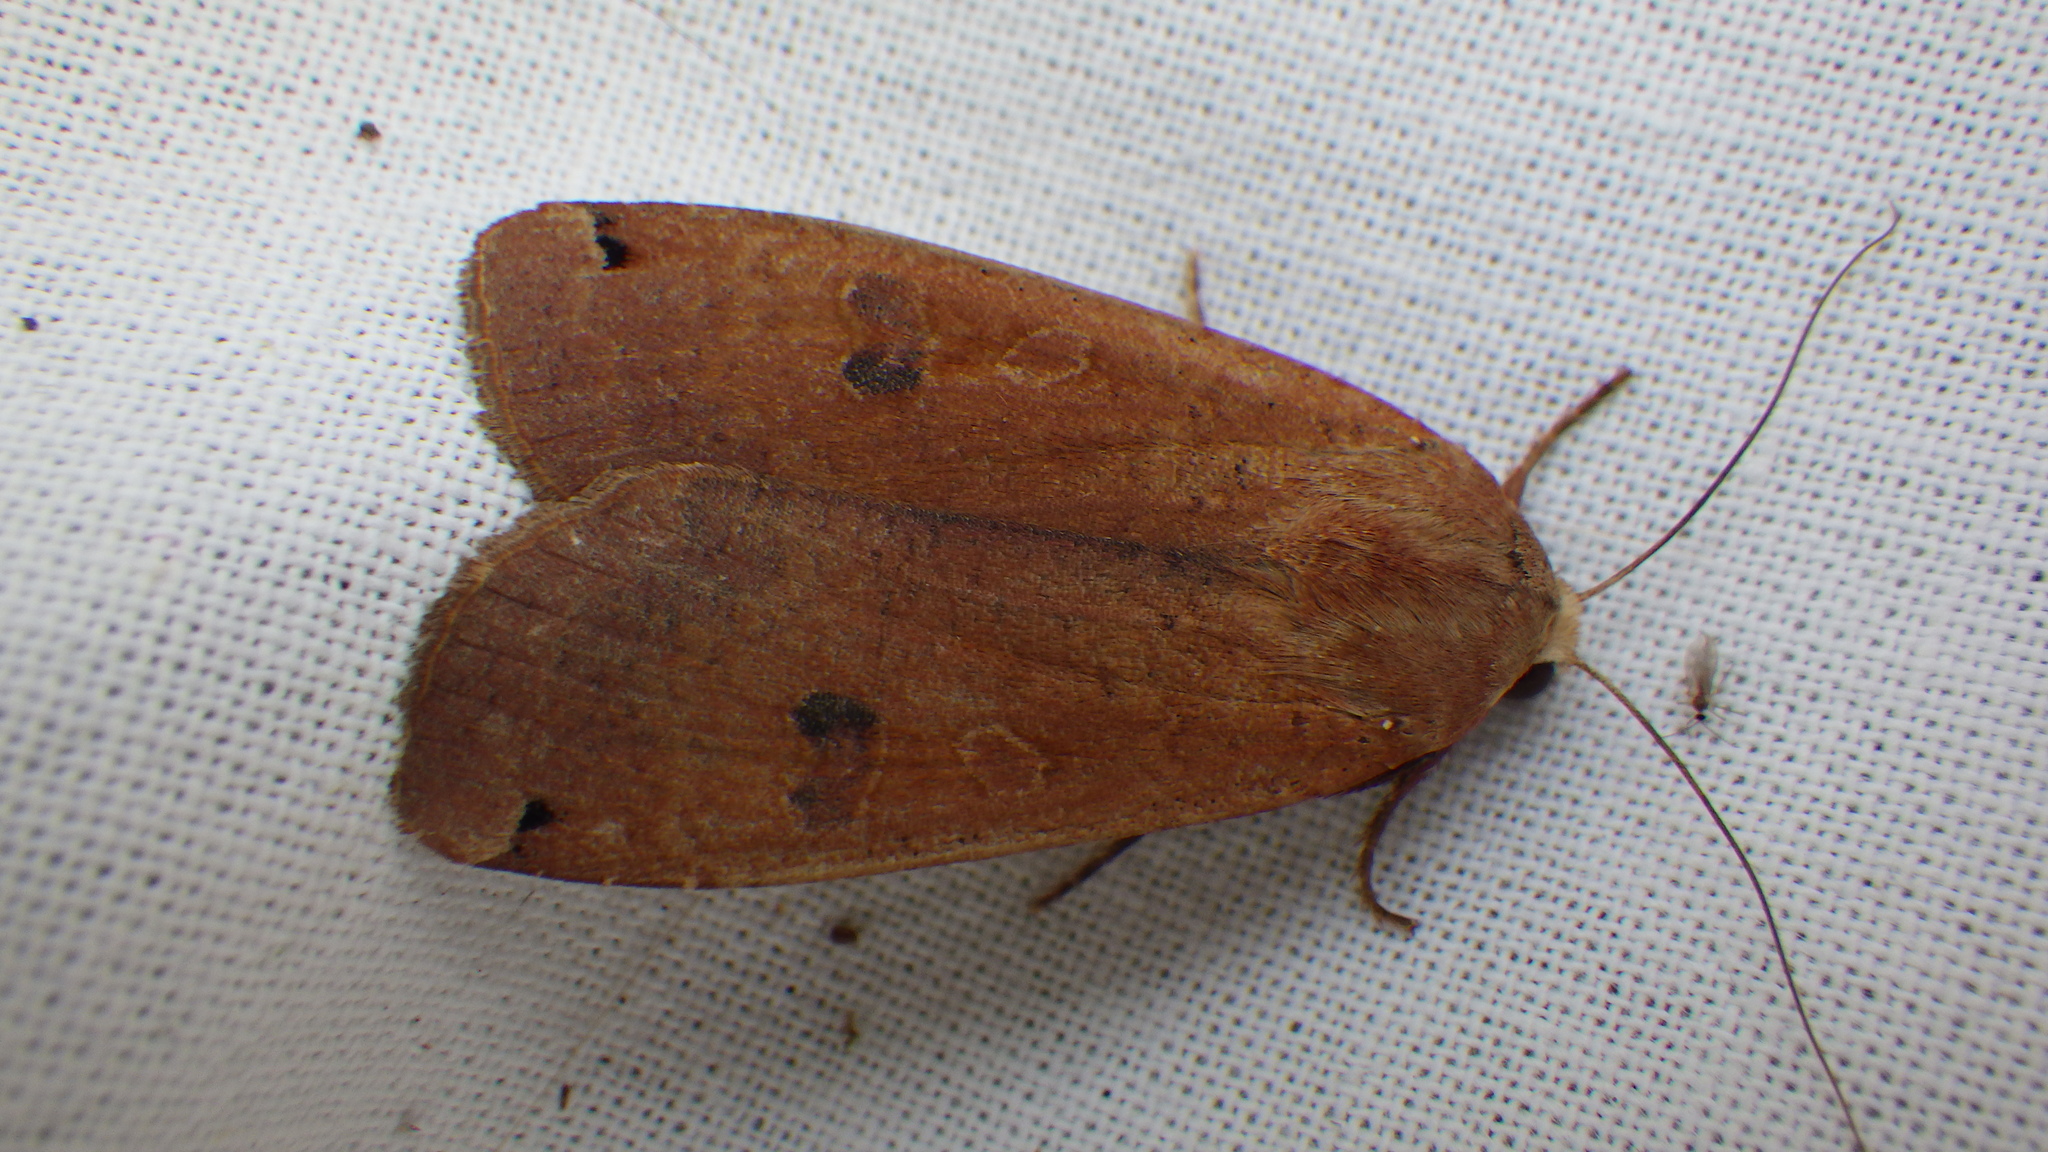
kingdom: Animalia
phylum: Arthropoda
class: Insecta
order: Lepidoptera
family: Noctuidae
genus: Noctua
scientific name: Noctua pronuba
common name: Large yellow underwing
